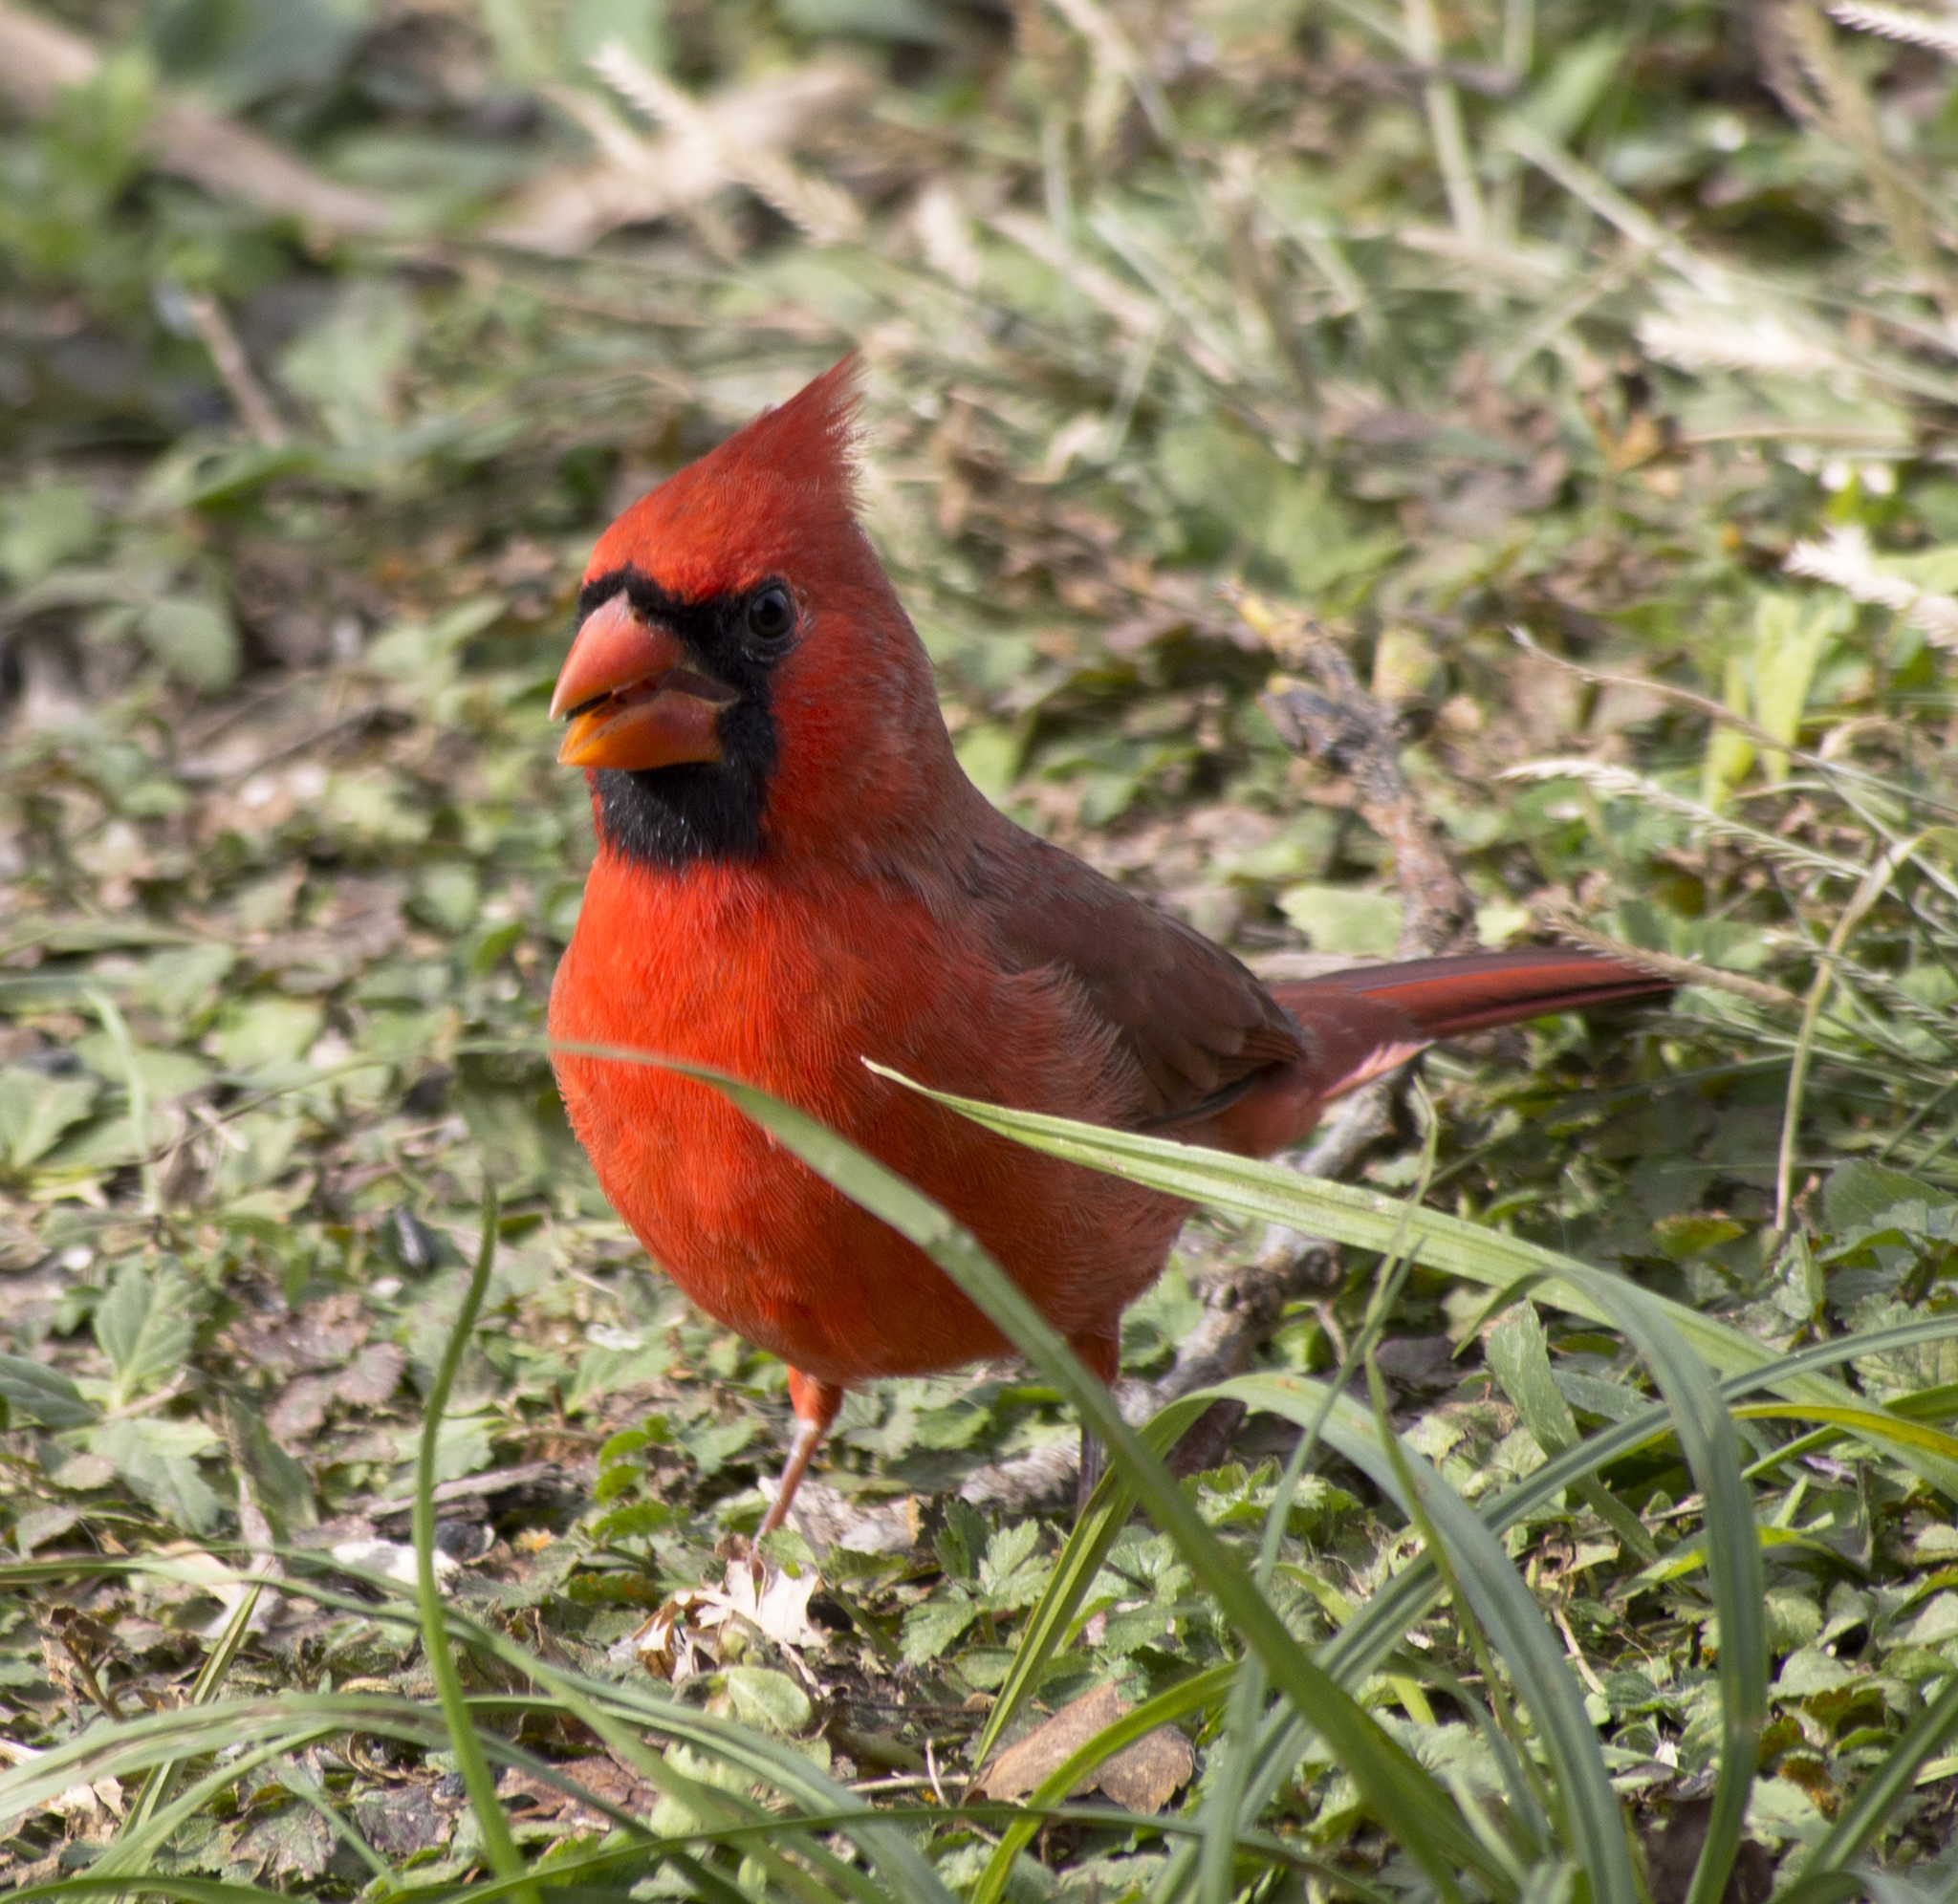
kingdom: Animalia
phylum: Chordata
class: Aves
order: Passeriformes
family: Cardinalidae
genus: Cardinalis
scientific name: Cardinalis cardinalis
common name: Northern cardinal
